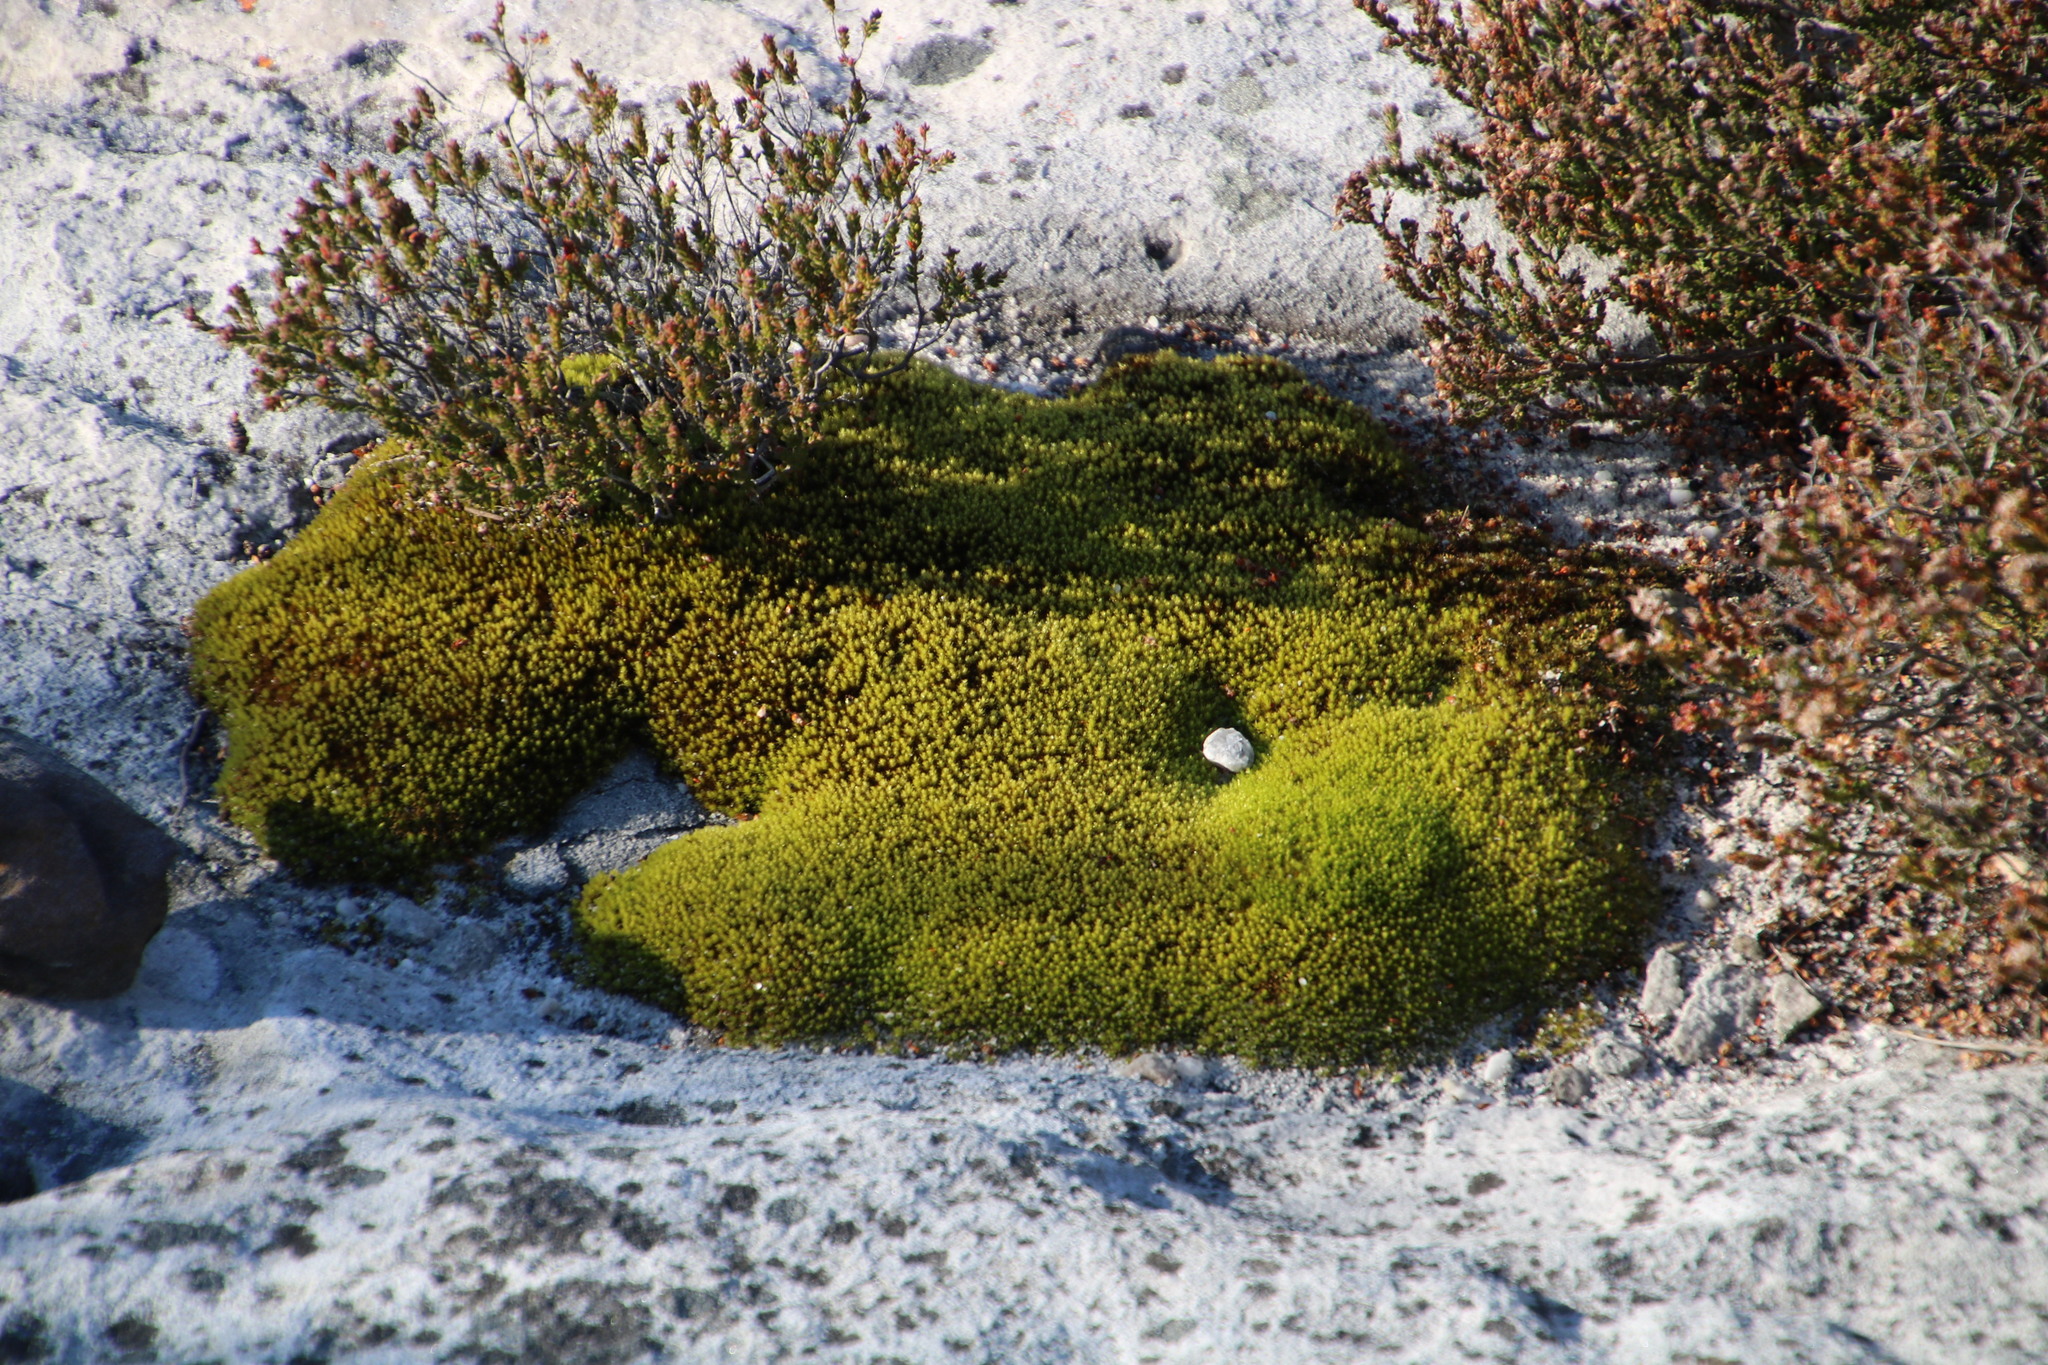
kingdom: Plantae
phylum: Bryophyta
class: Bryopsida
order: Dicranales
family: Hypodontiaceae
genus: Hypodontium
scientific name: Hypodontium pomiforme
